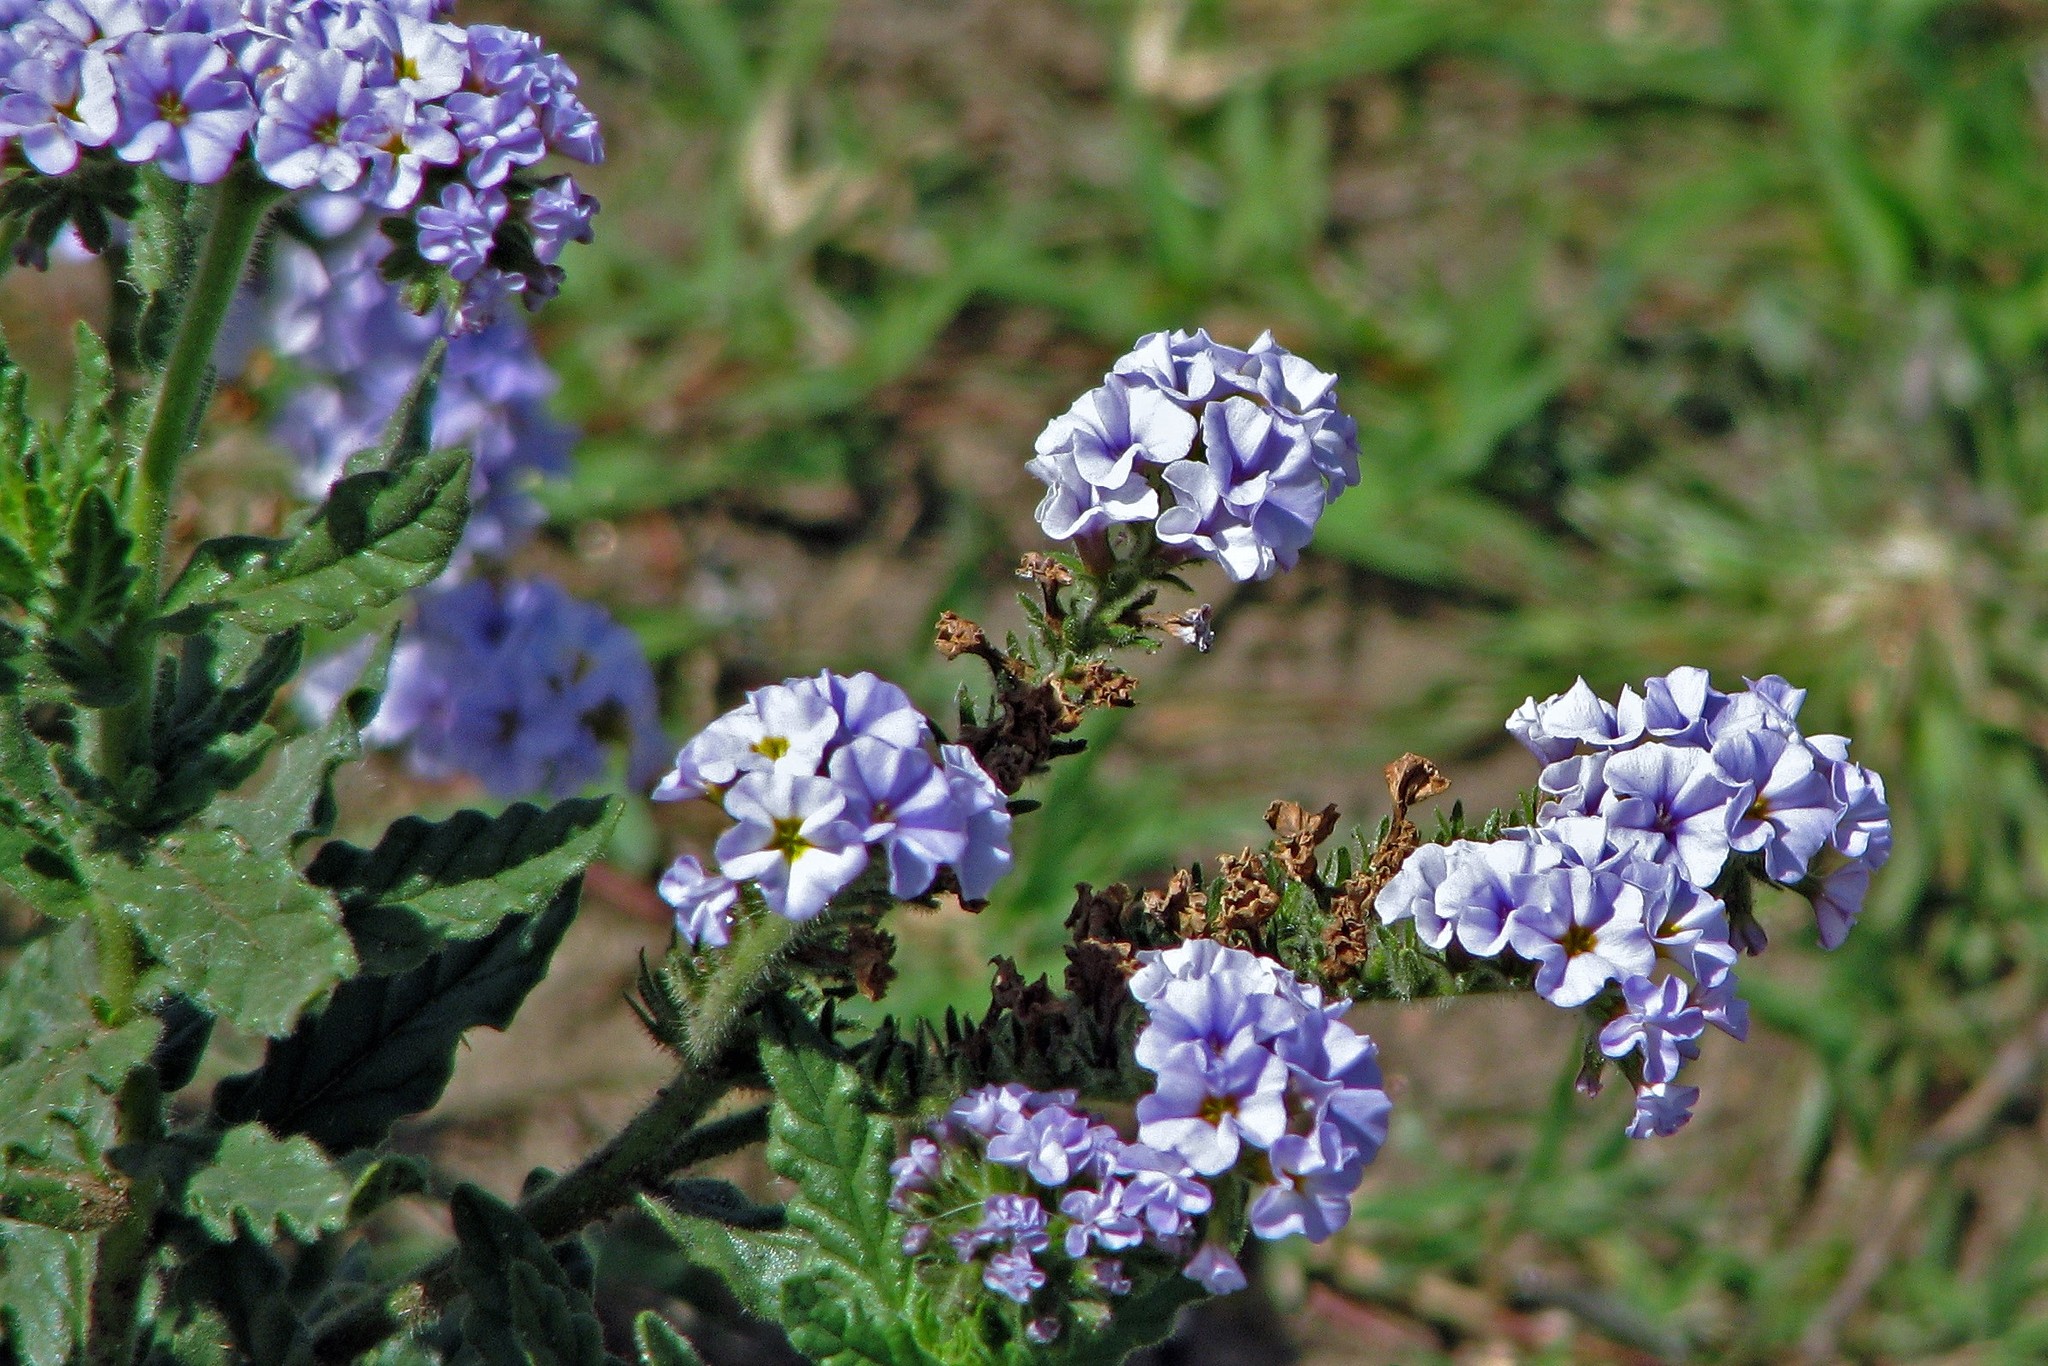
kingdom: Plantae
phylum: Tracheophyta
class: Magnoliopsida
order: Boraginales
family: Heliotropiaceae
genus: Heliotropium
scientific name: Heliotropium amplexicaule
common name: Clasping heliotrope
